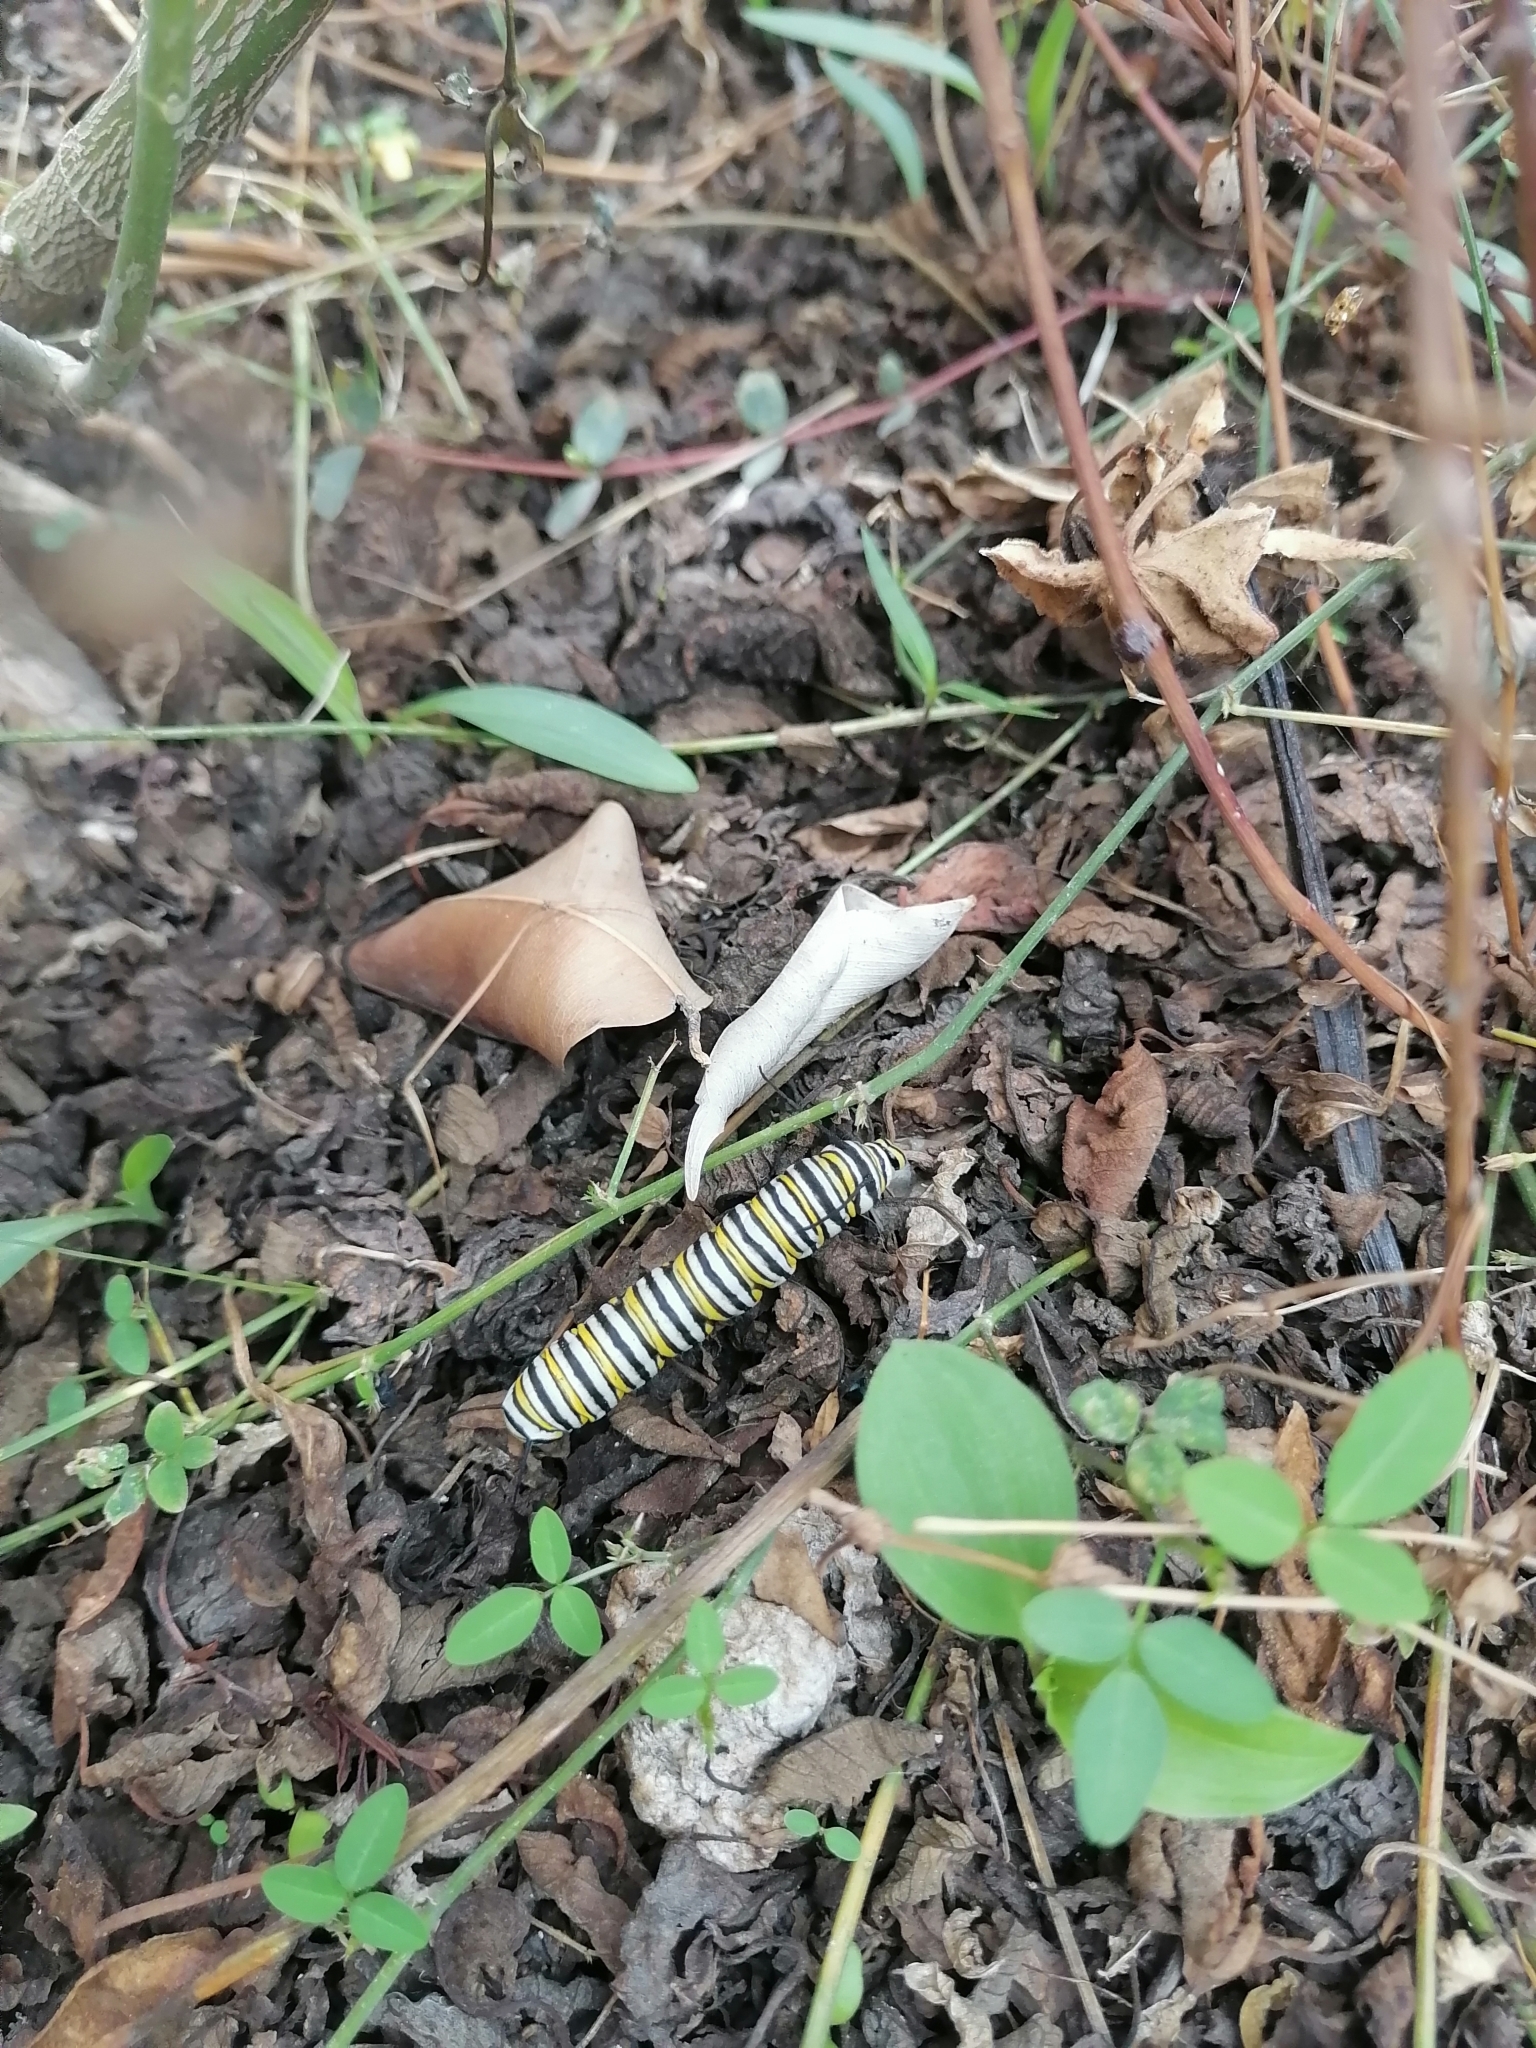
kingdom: Animalia
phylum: Arthropoda
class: Insecta
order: Lepidoptera
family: Nymphalidae
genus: Danaus
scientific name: Danaus plexippus
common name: Monarch
